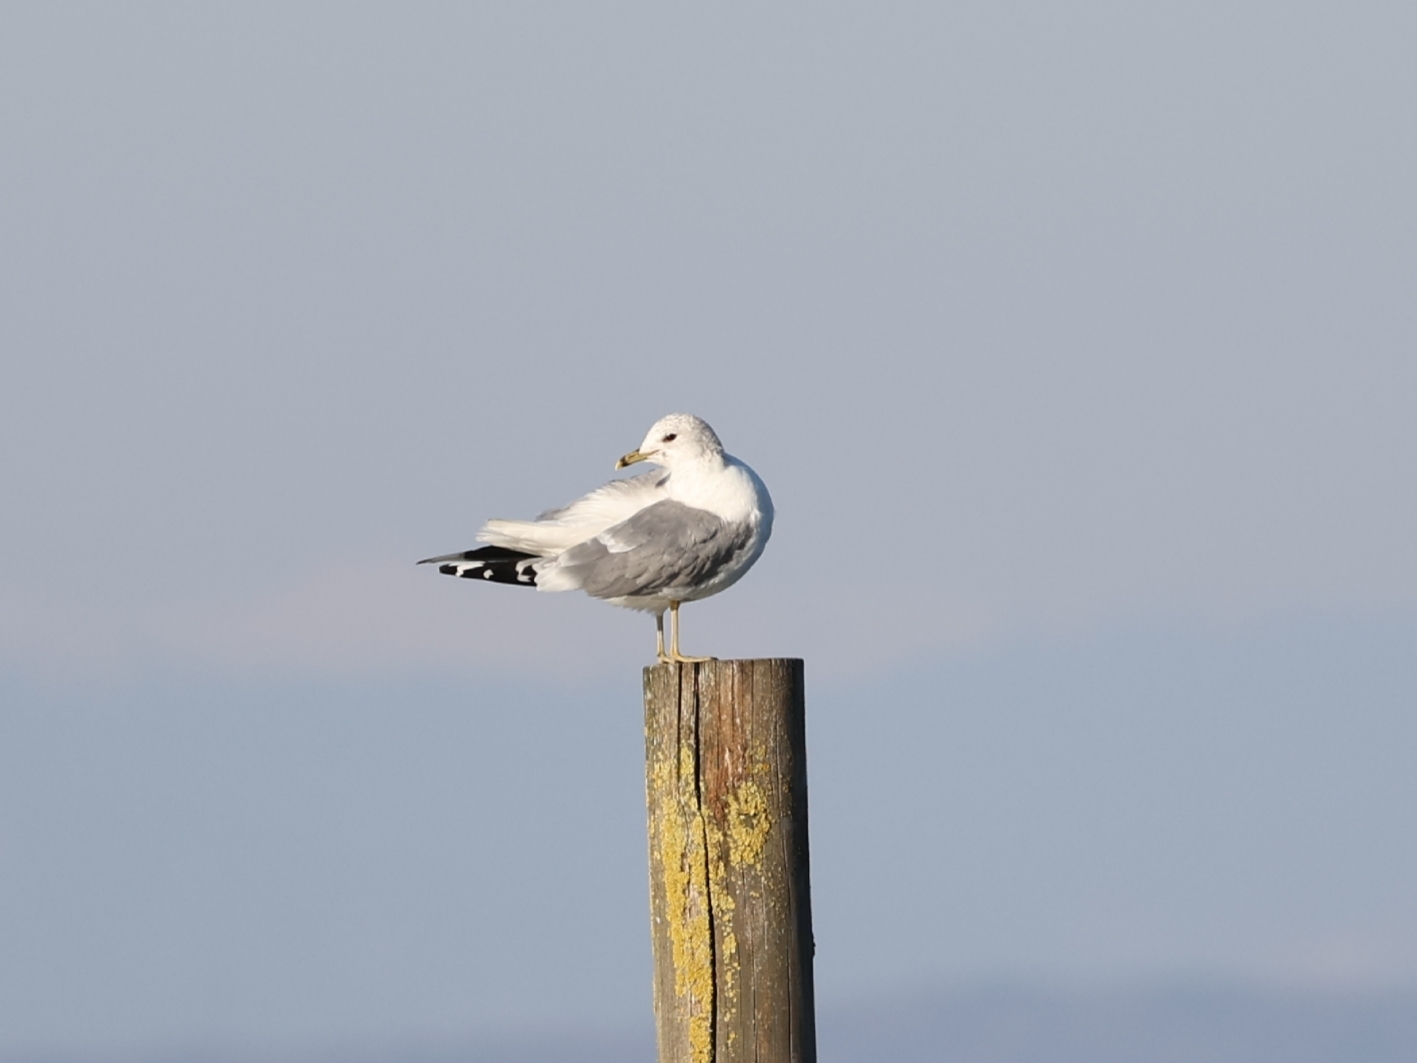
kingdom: Animalia
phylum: Chordata
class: Aves
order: Charadriiformes
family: Laridae
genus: Larus
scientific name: Larus canus
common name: Mew gull
